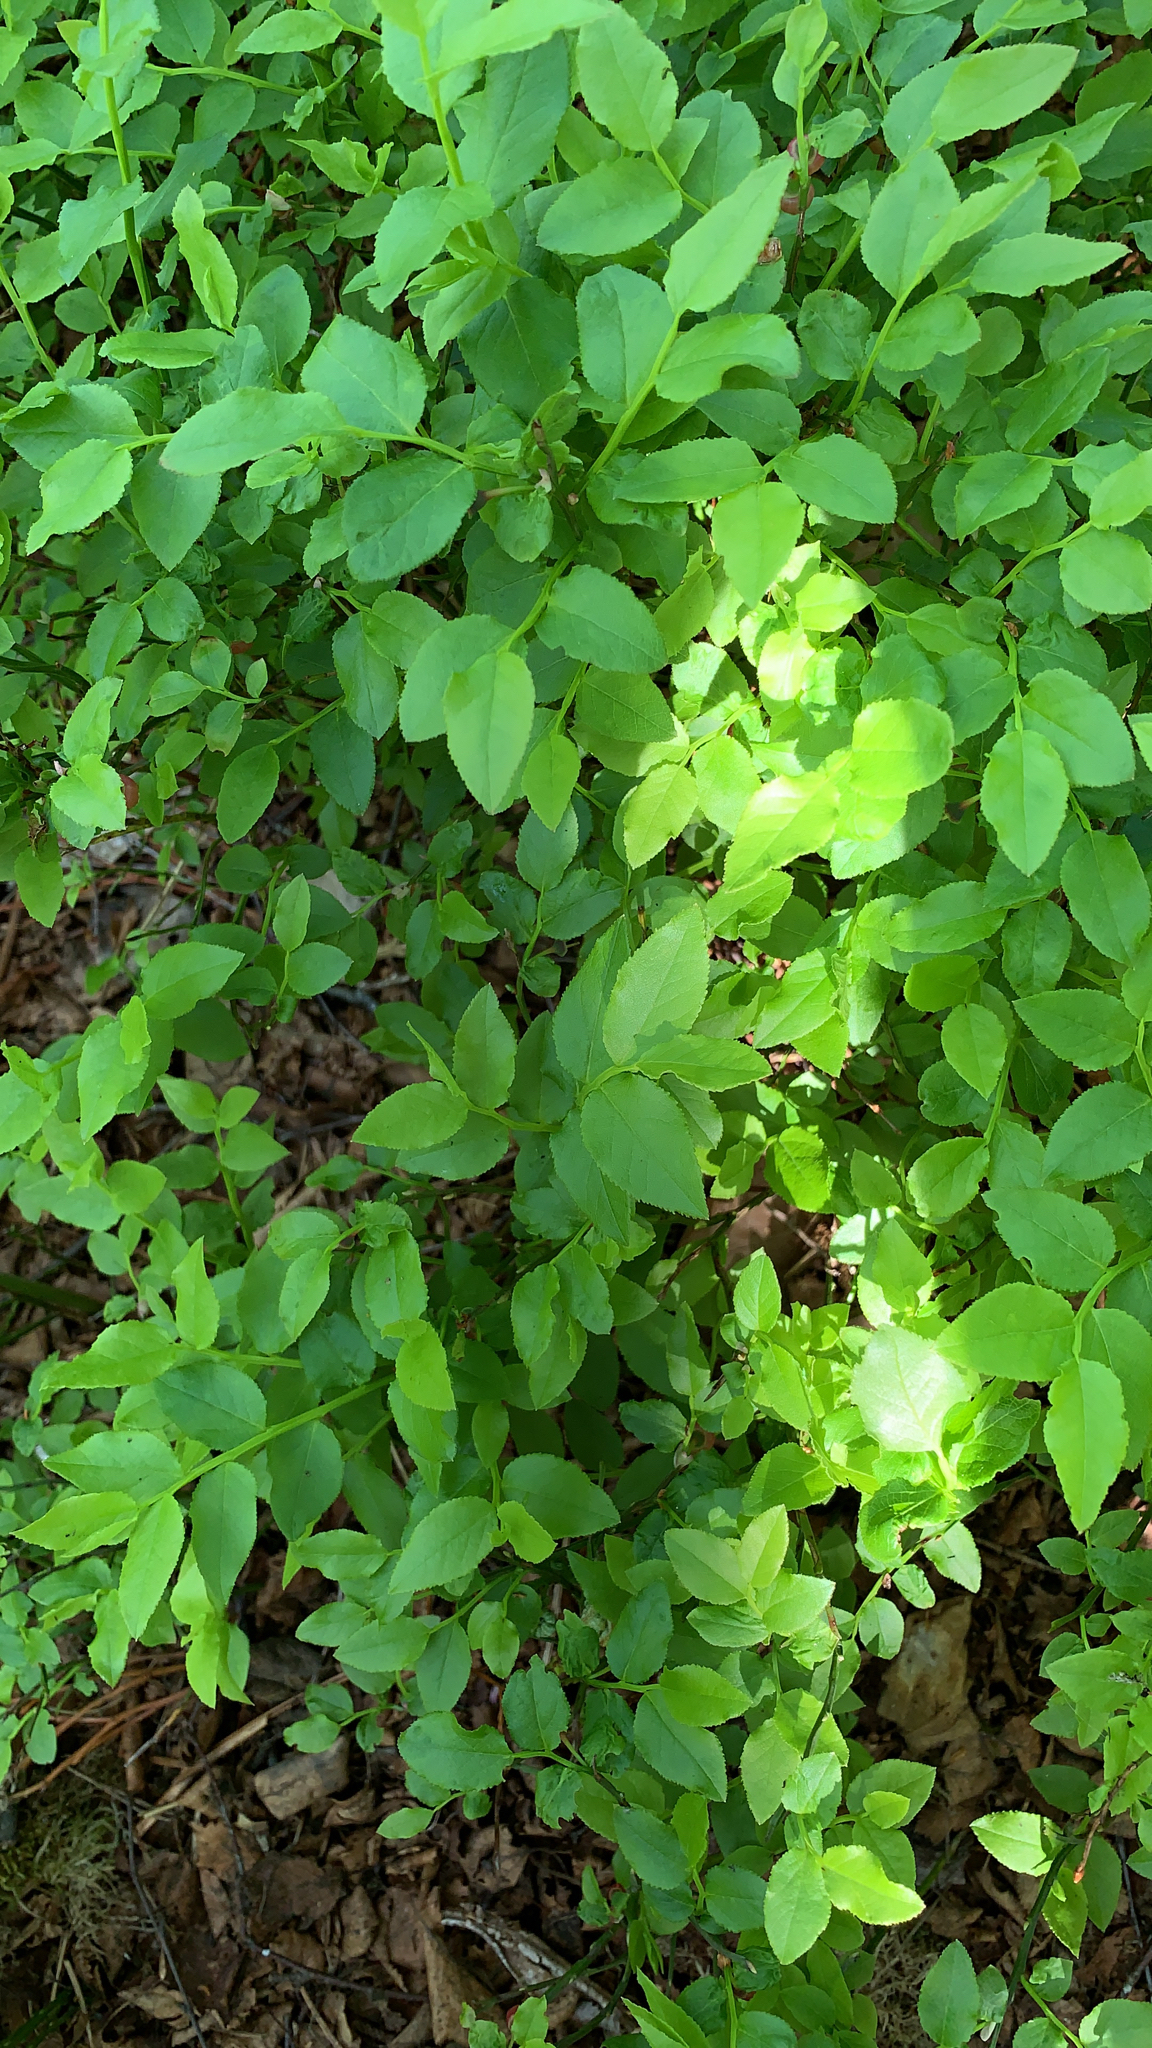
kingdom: Plantae
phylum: Tracheophyta
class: Magnoliopsida
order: Ericales
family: Ericaceae
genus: Vaccinium
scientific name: Vaccinium myrtillus
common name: Bilberry
